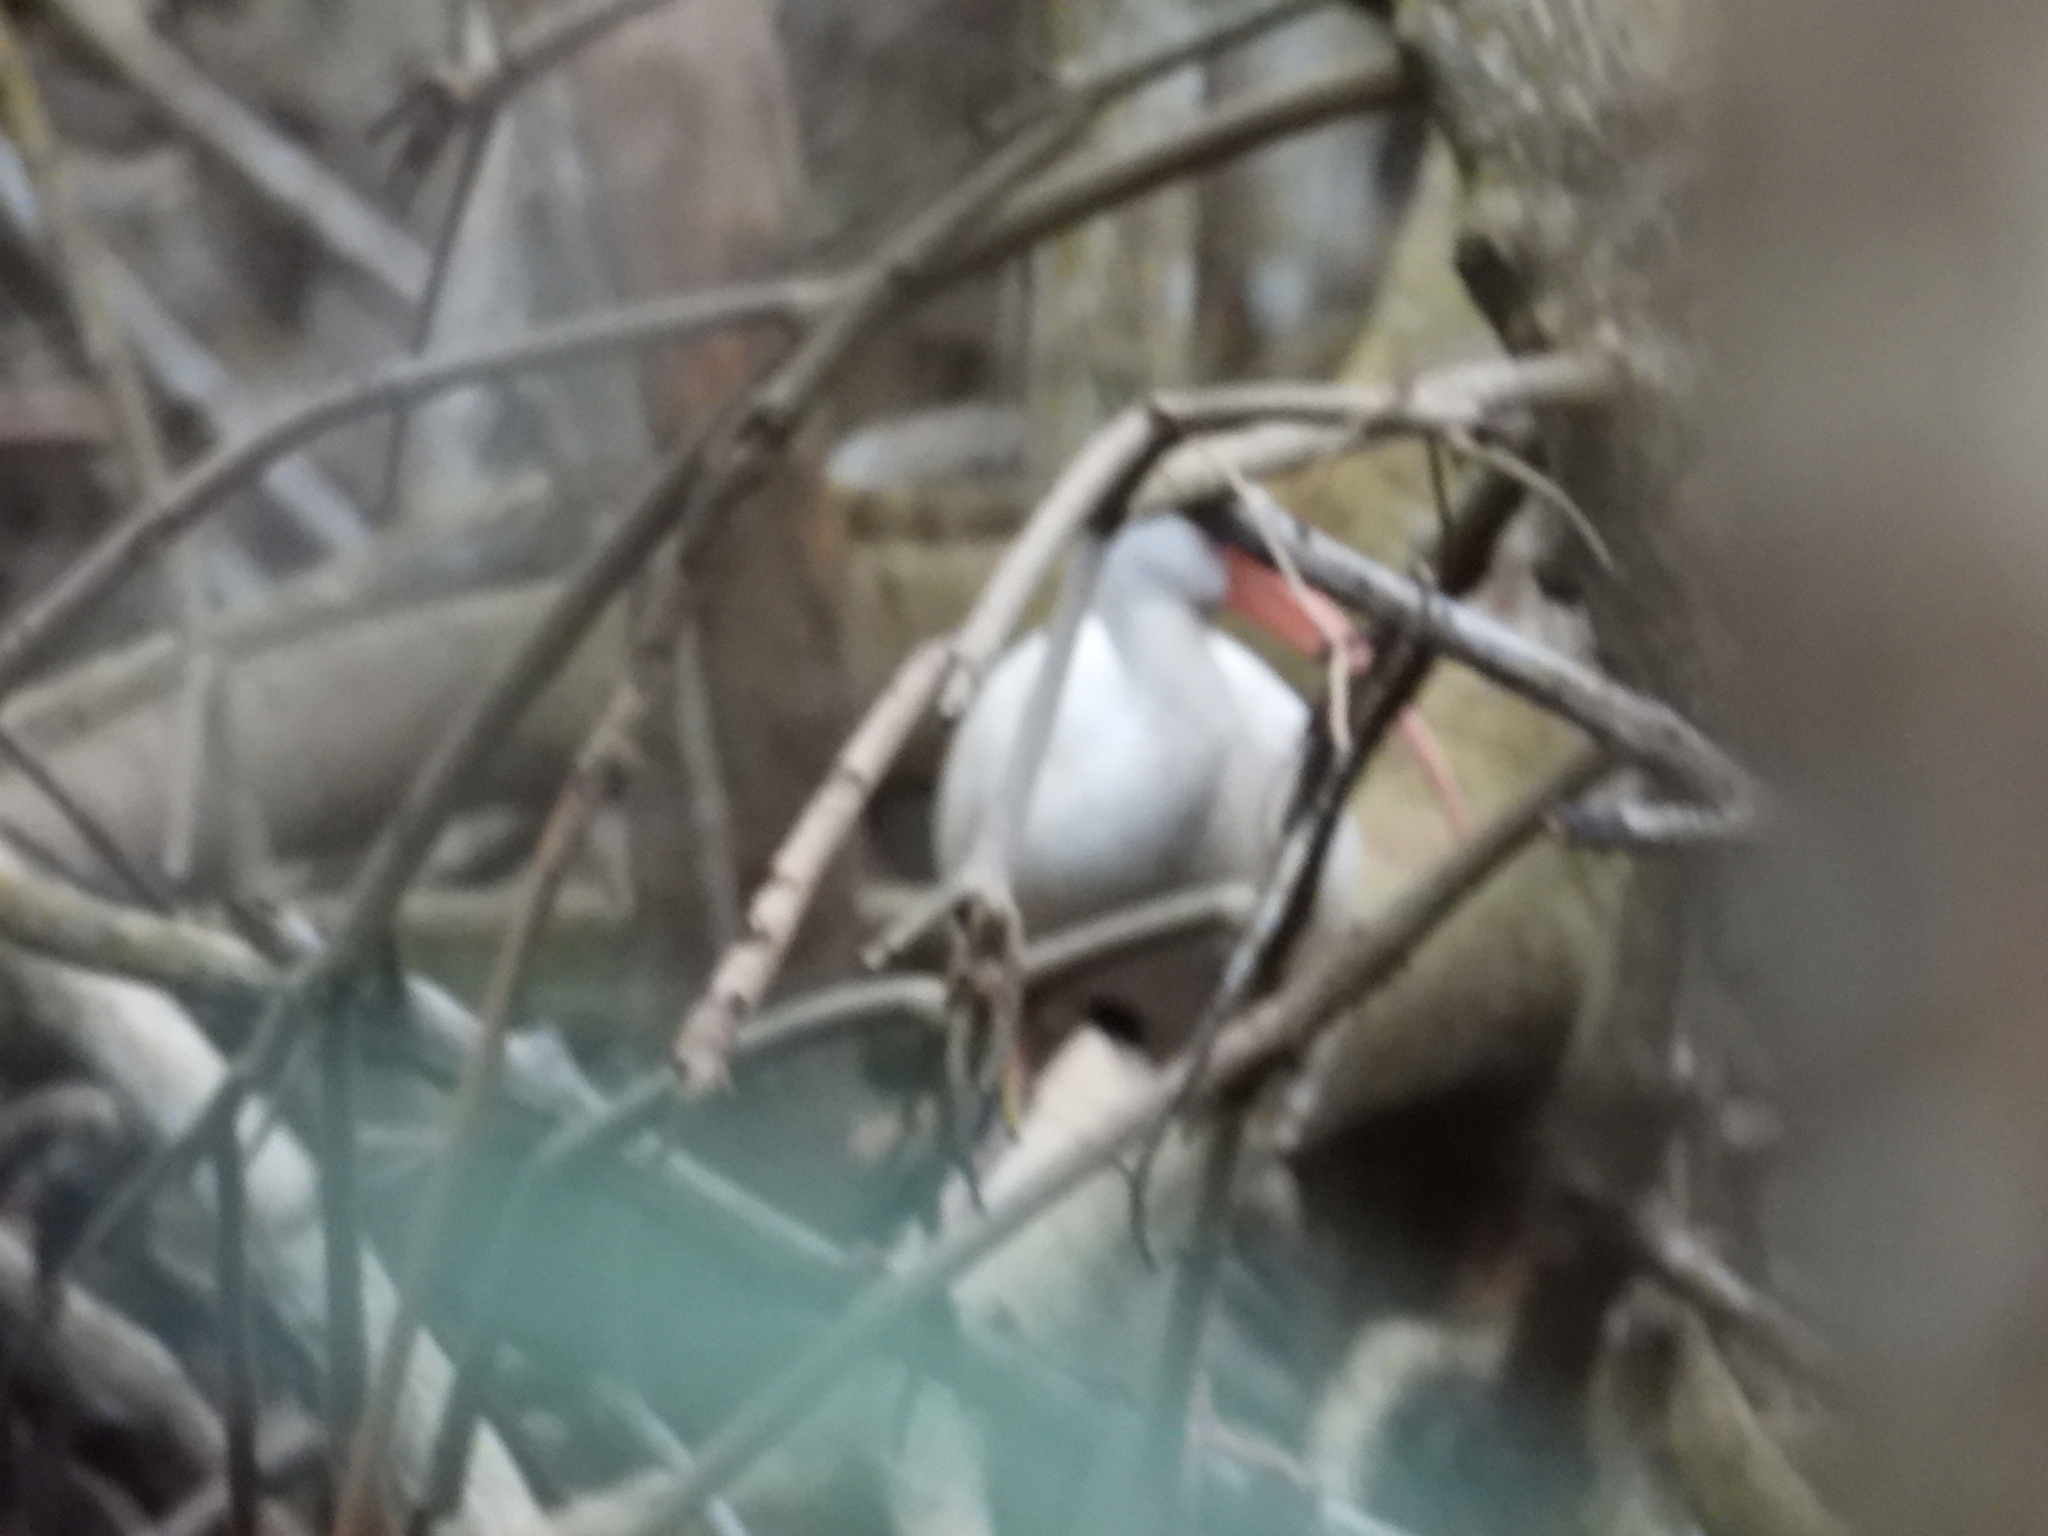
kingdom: Animalia
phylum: Chordata
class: Aves
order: Pelecaniformes
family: Threskiornithidae
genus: Eudocimus
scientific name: Eudocimus albus
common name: White ibis
